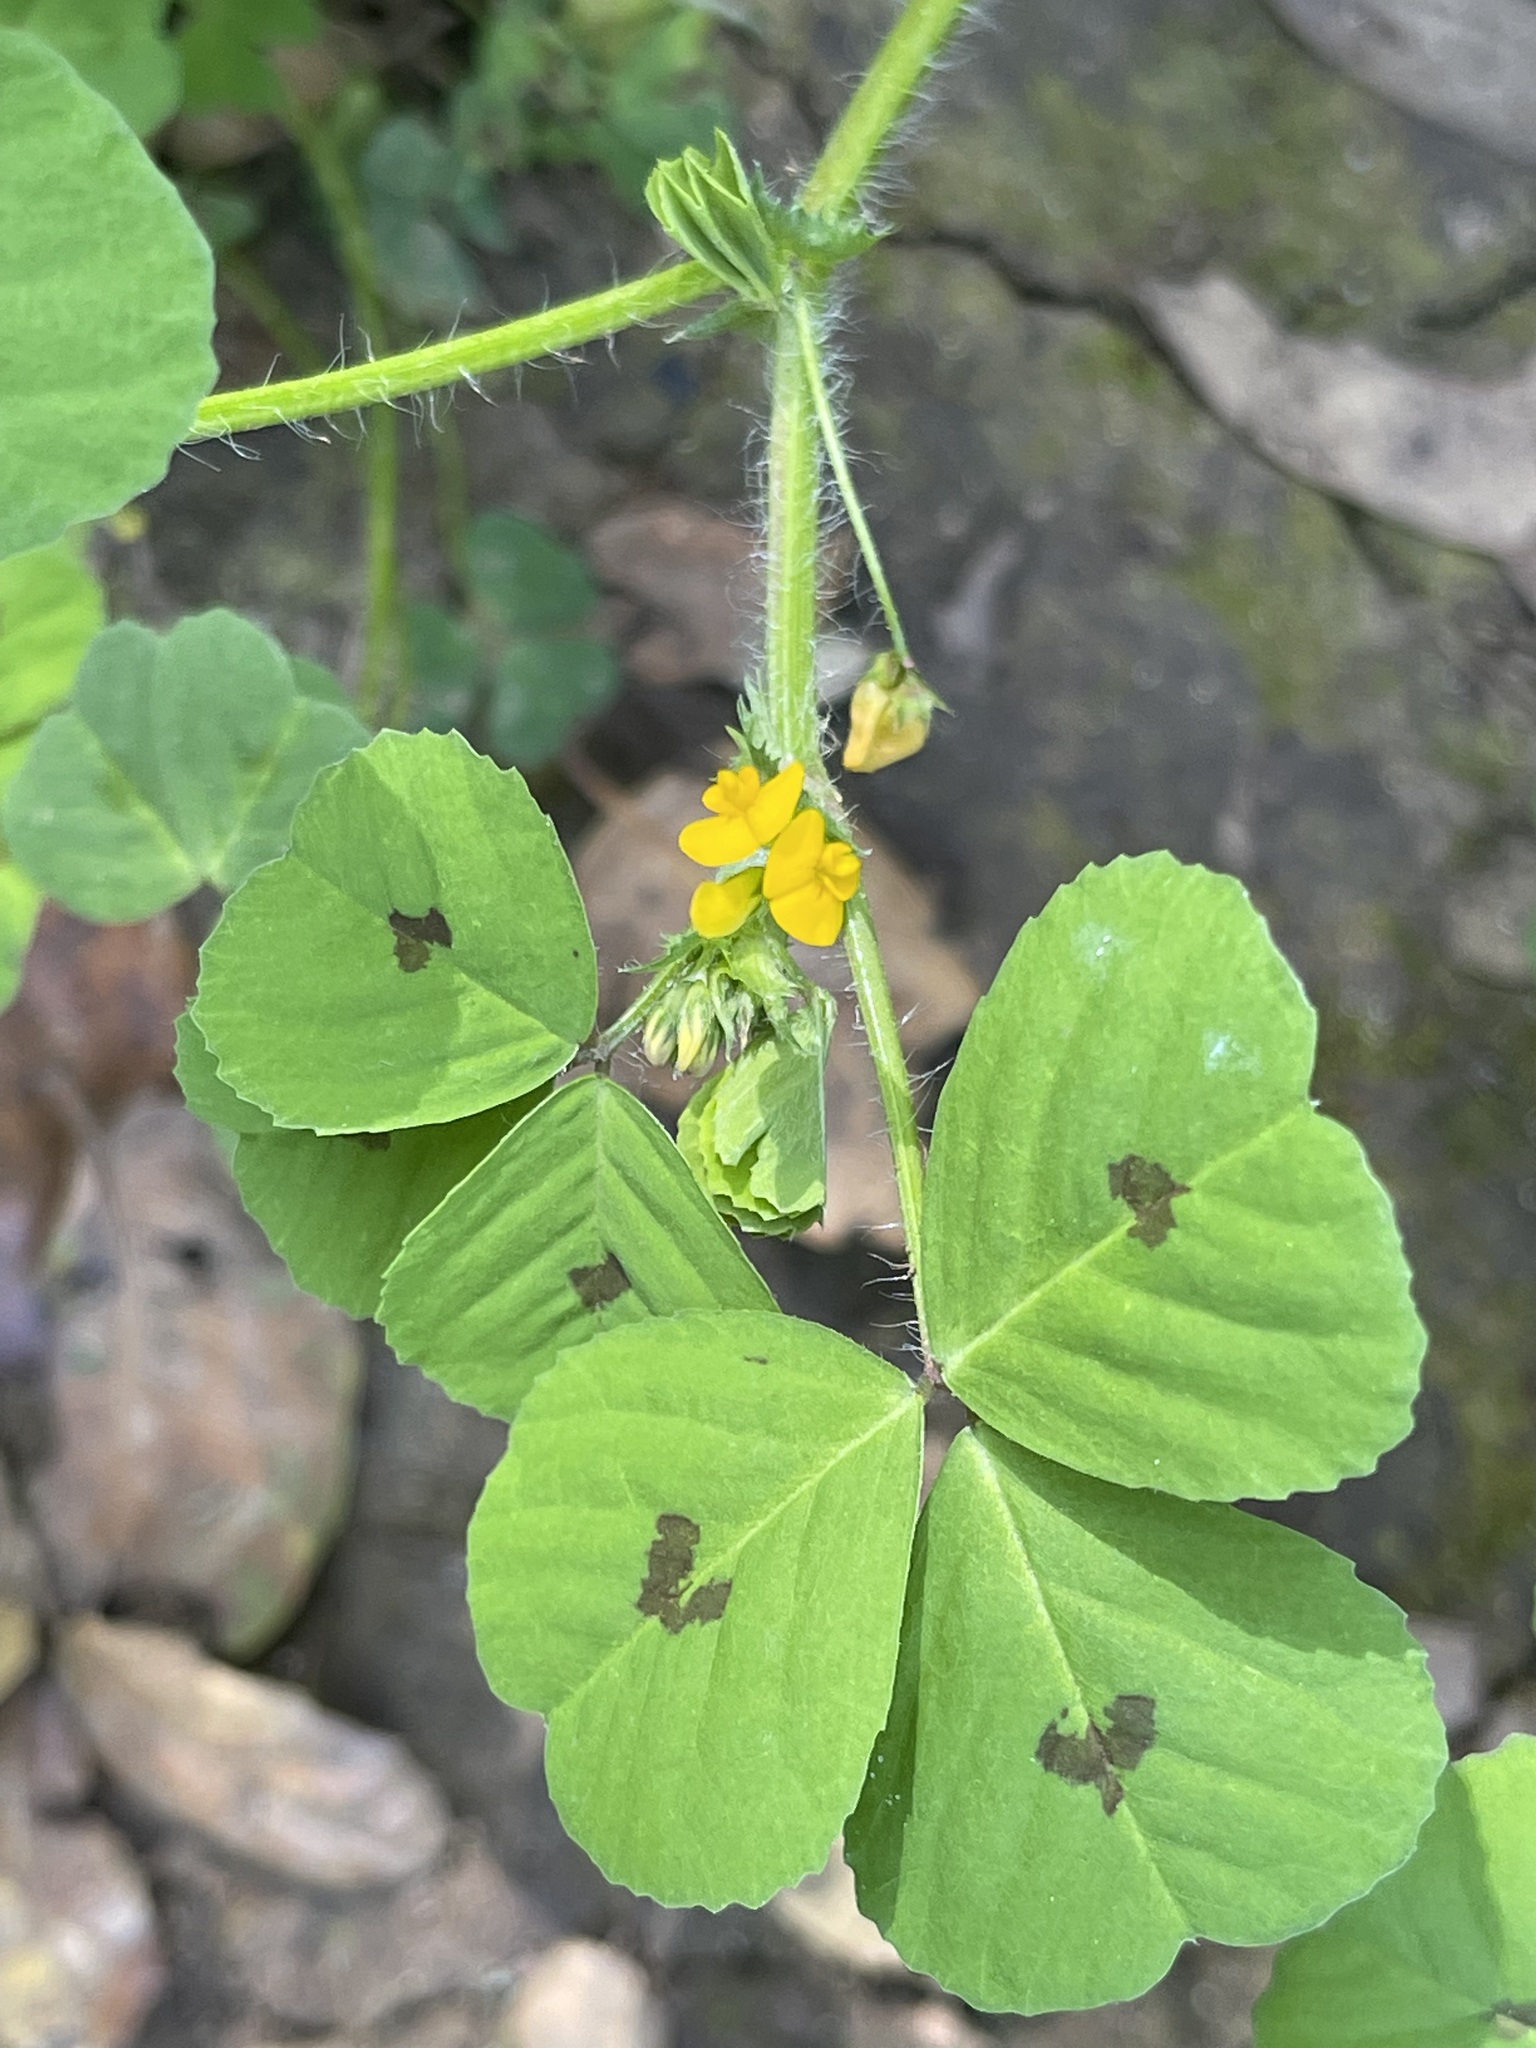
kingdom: Plantae
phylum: Tracheophyta
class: Magnoliopsida
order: Fabales
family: Fabaceae
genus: Medicago
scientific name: Medicago arabica
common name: Spotted medick
